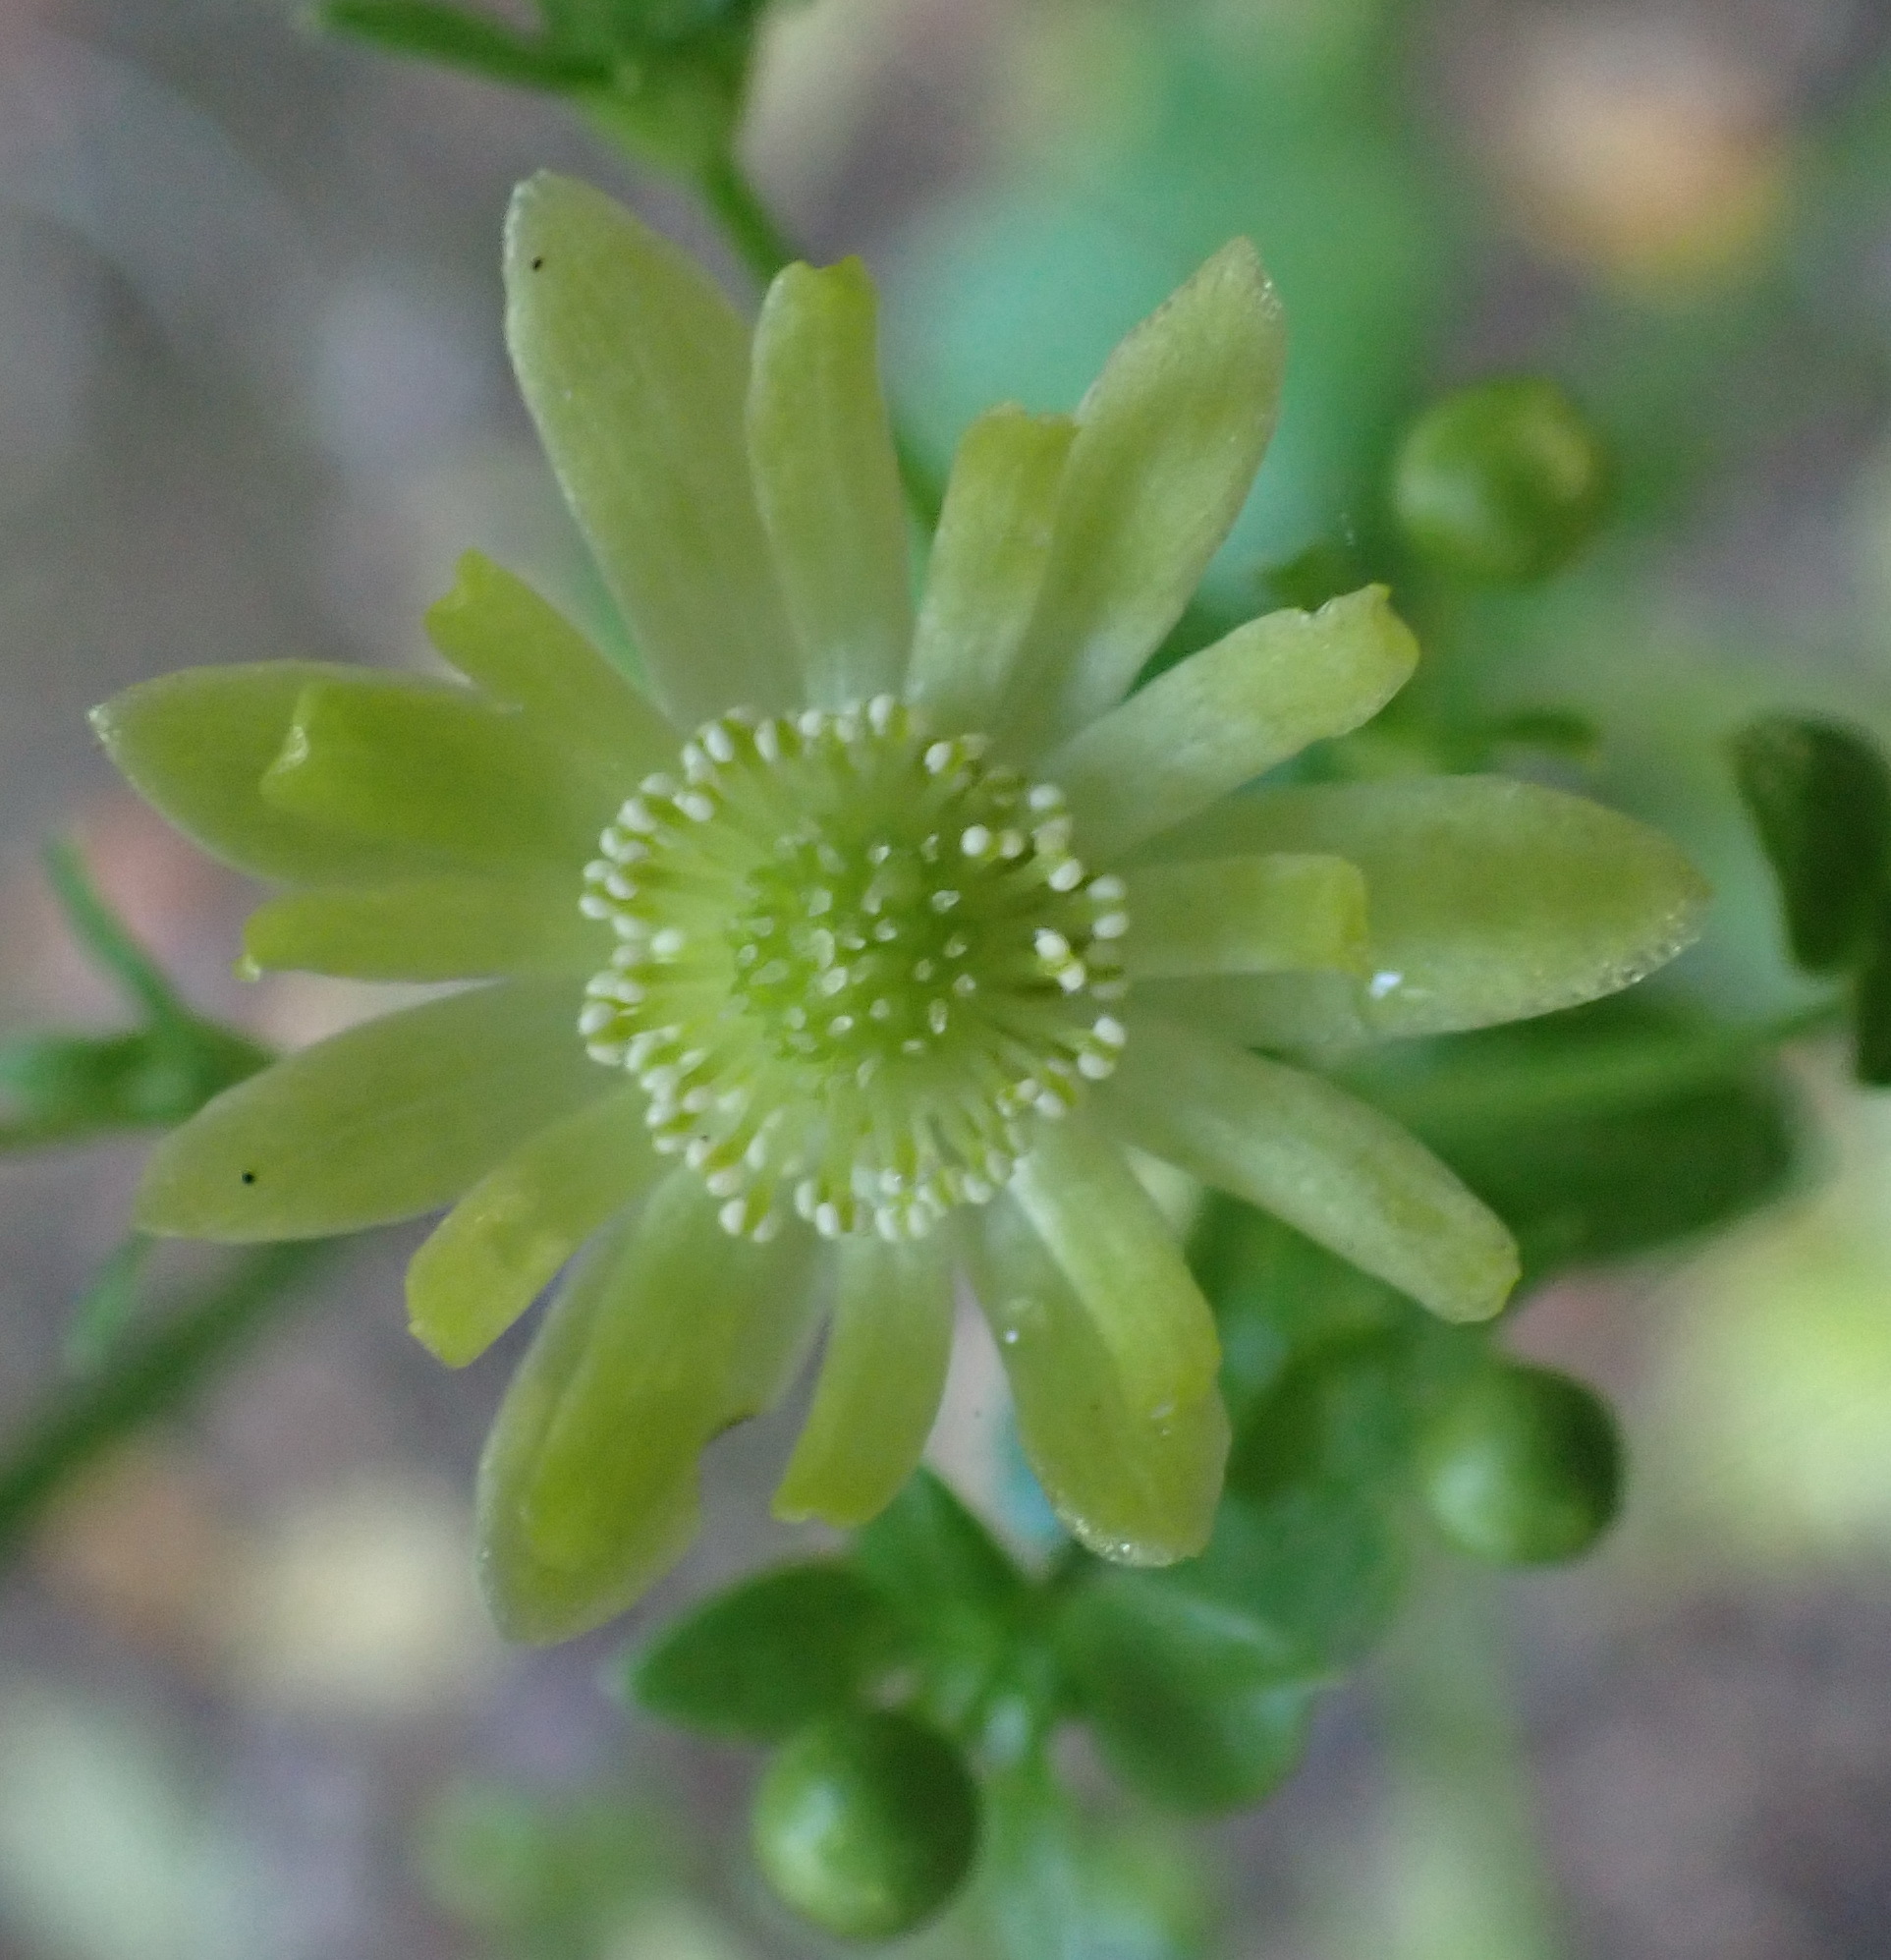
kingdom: Plantae
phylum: Tracheophyta
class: Magnoliopsida
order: Ranunculales
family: Ranunculaceae
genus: Knowltonia
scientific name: Knowltonia vesicatoria
